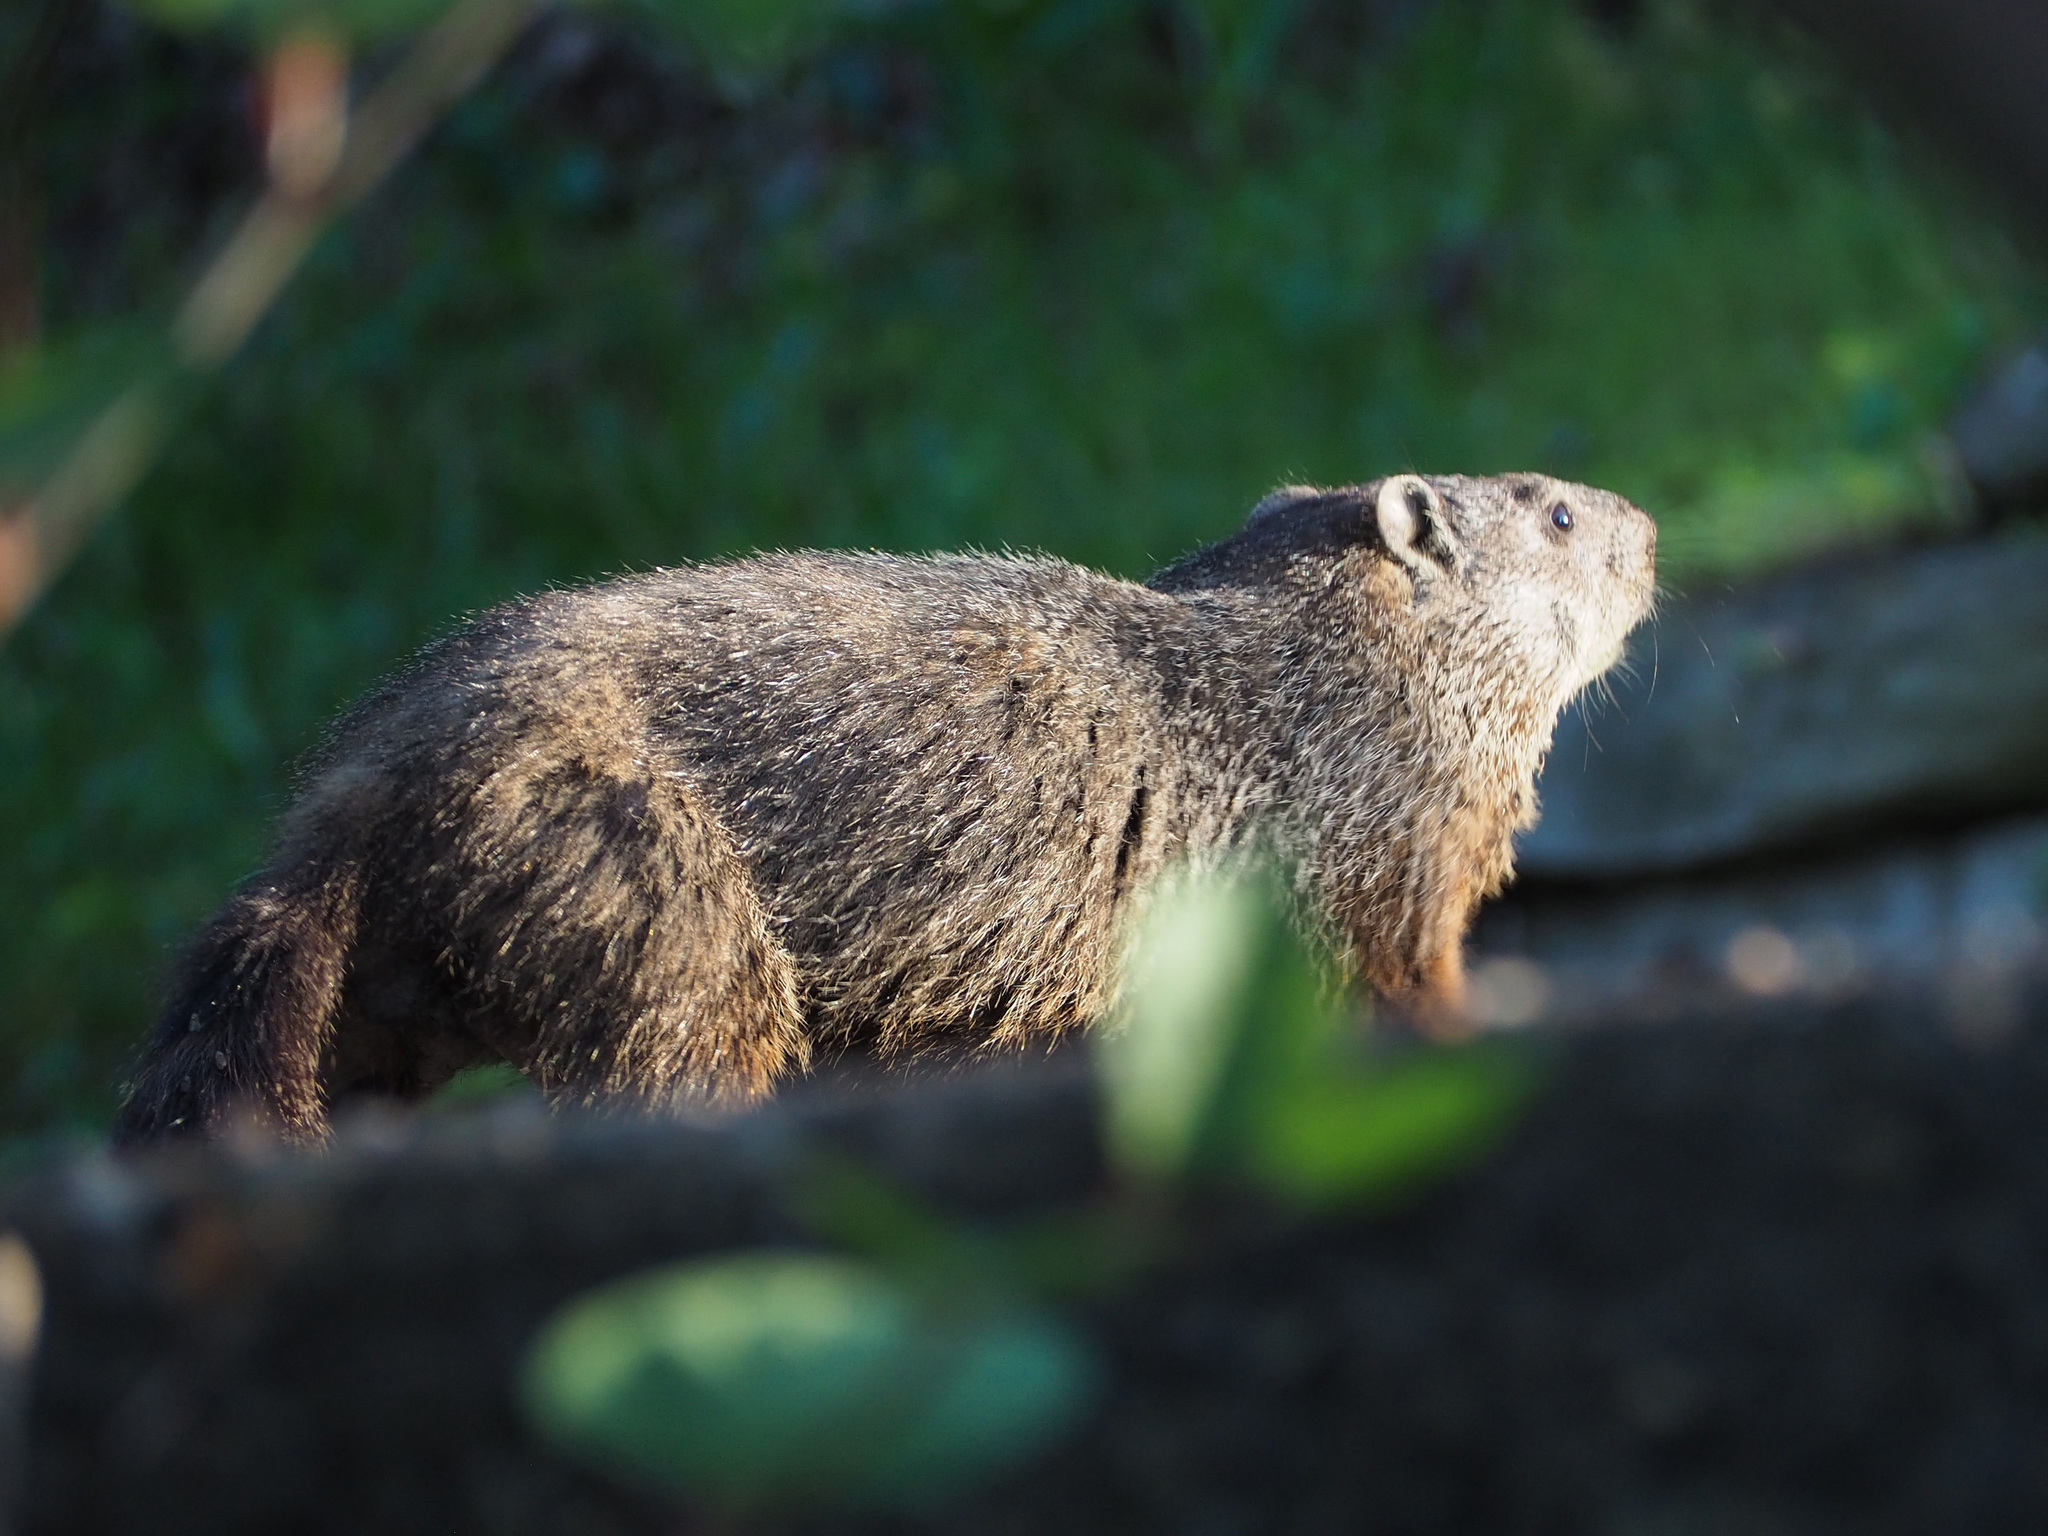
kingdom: Animalia
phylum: Chordata
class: Mammalia
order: Rodentia
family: Sciuridae
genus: Marmota
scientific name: Marmota monax
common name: Groundhog
